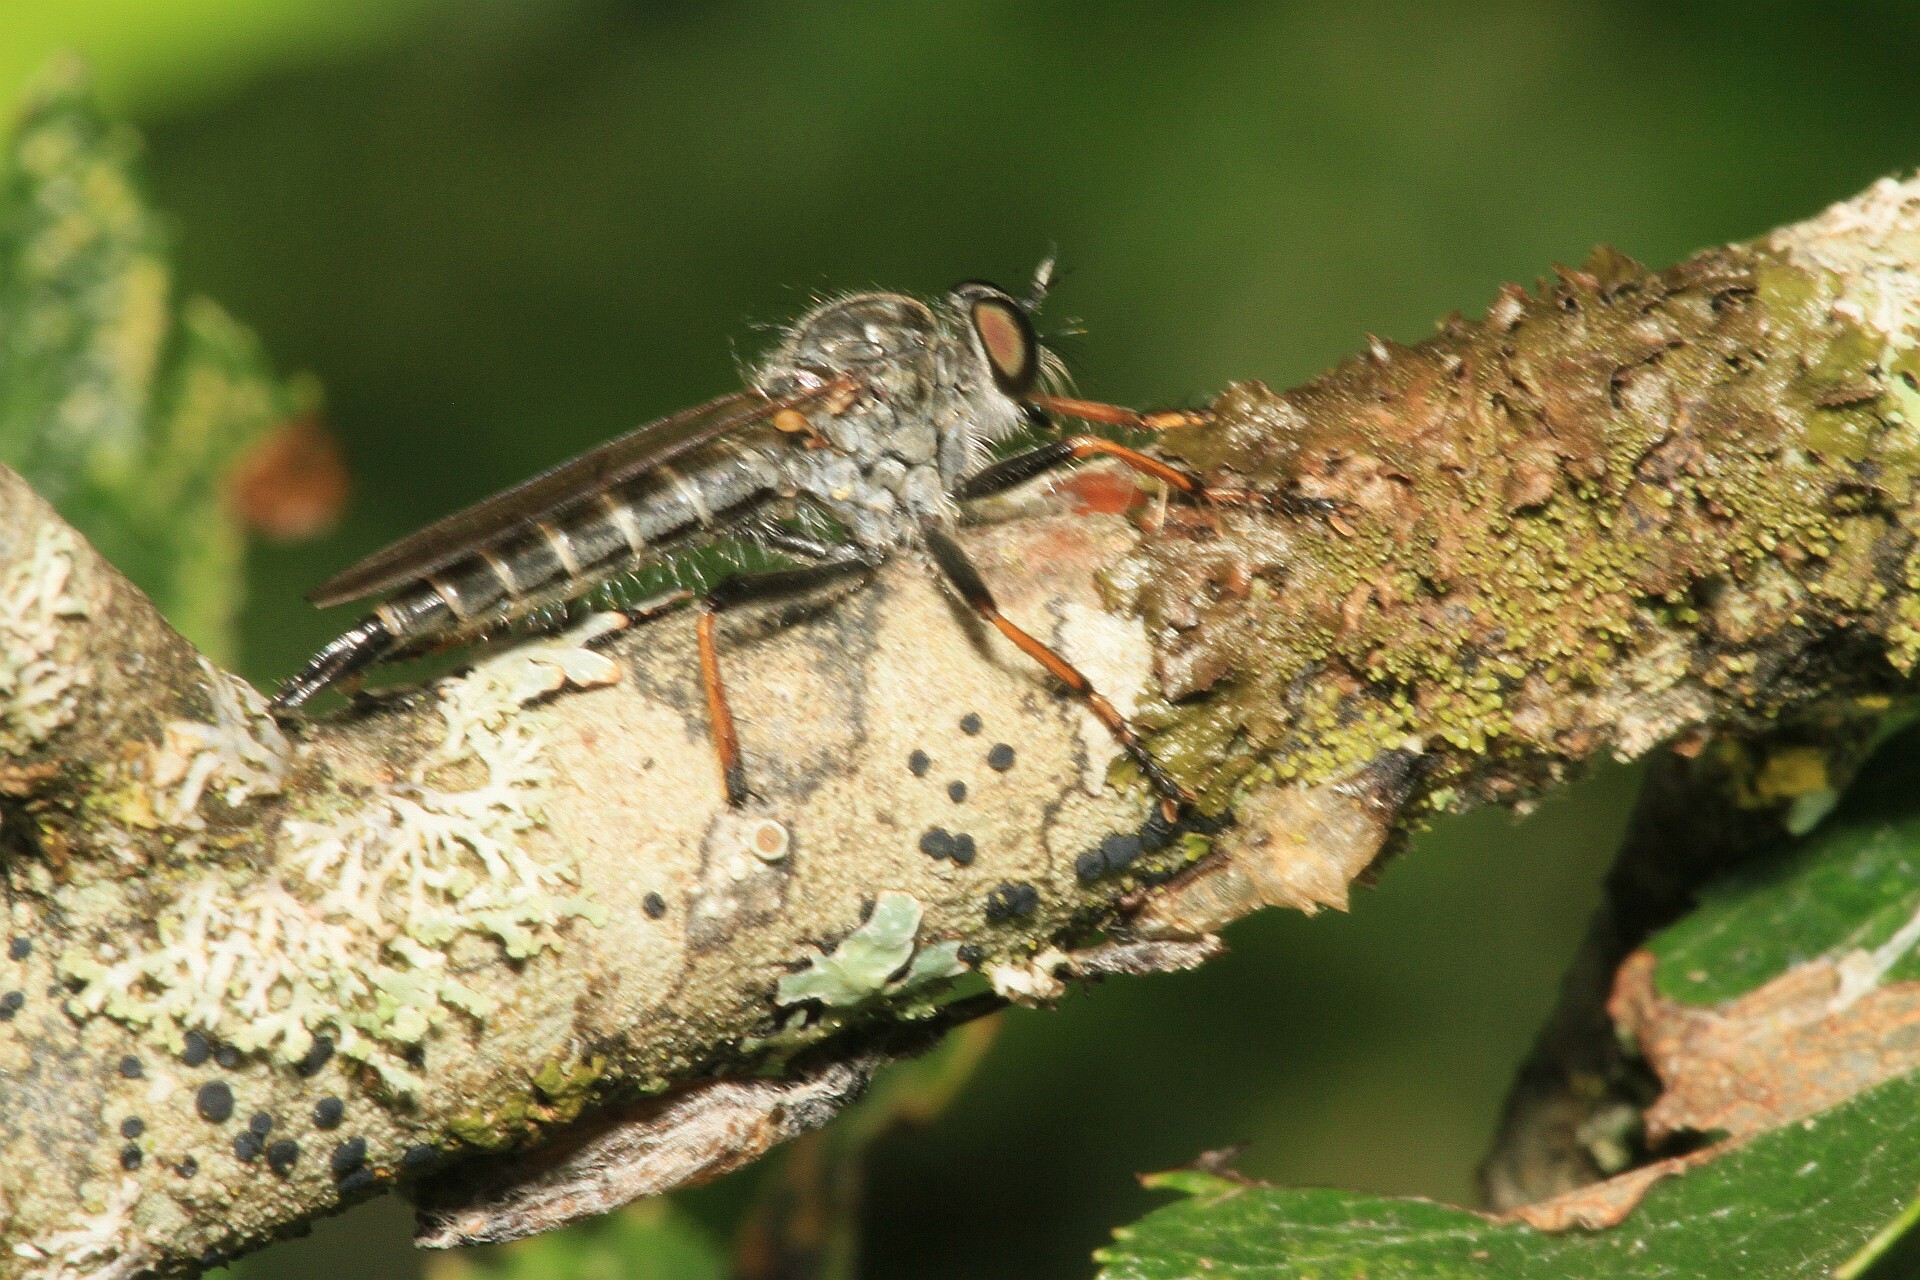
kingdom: Animalia
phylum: Arthropoda
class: Insecta
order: Diptera
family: Asilidae
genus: Paritamus
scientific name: Paritamus geniculatus
